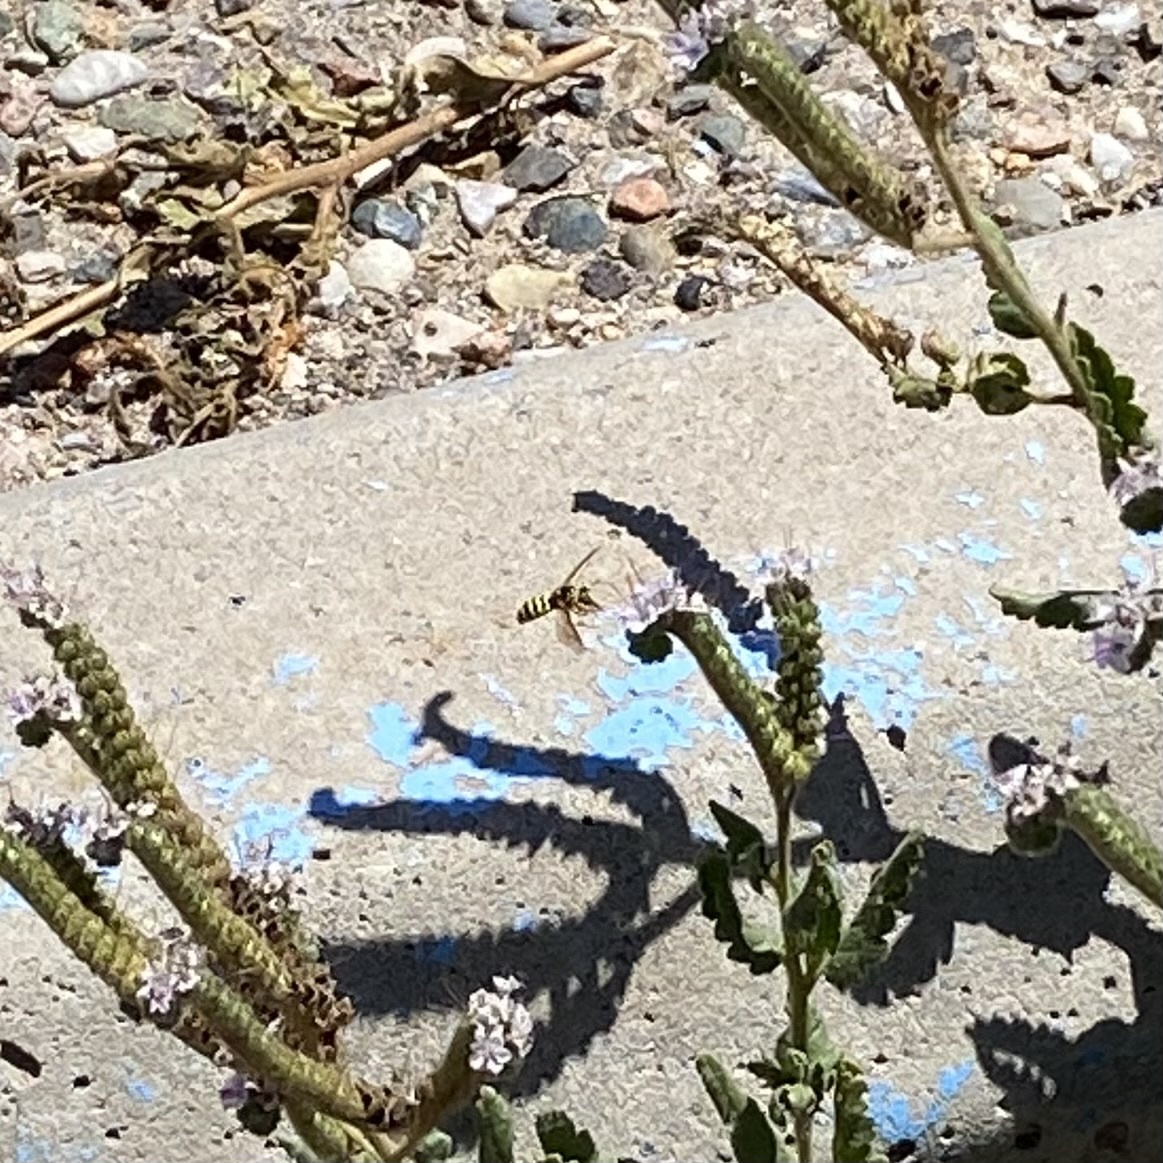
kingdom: Animalia
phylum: Arthropoda
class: Insecta
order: Hymenoptera
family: Masaridae
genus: Pseudomasaris
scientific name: Pseudomasaris
